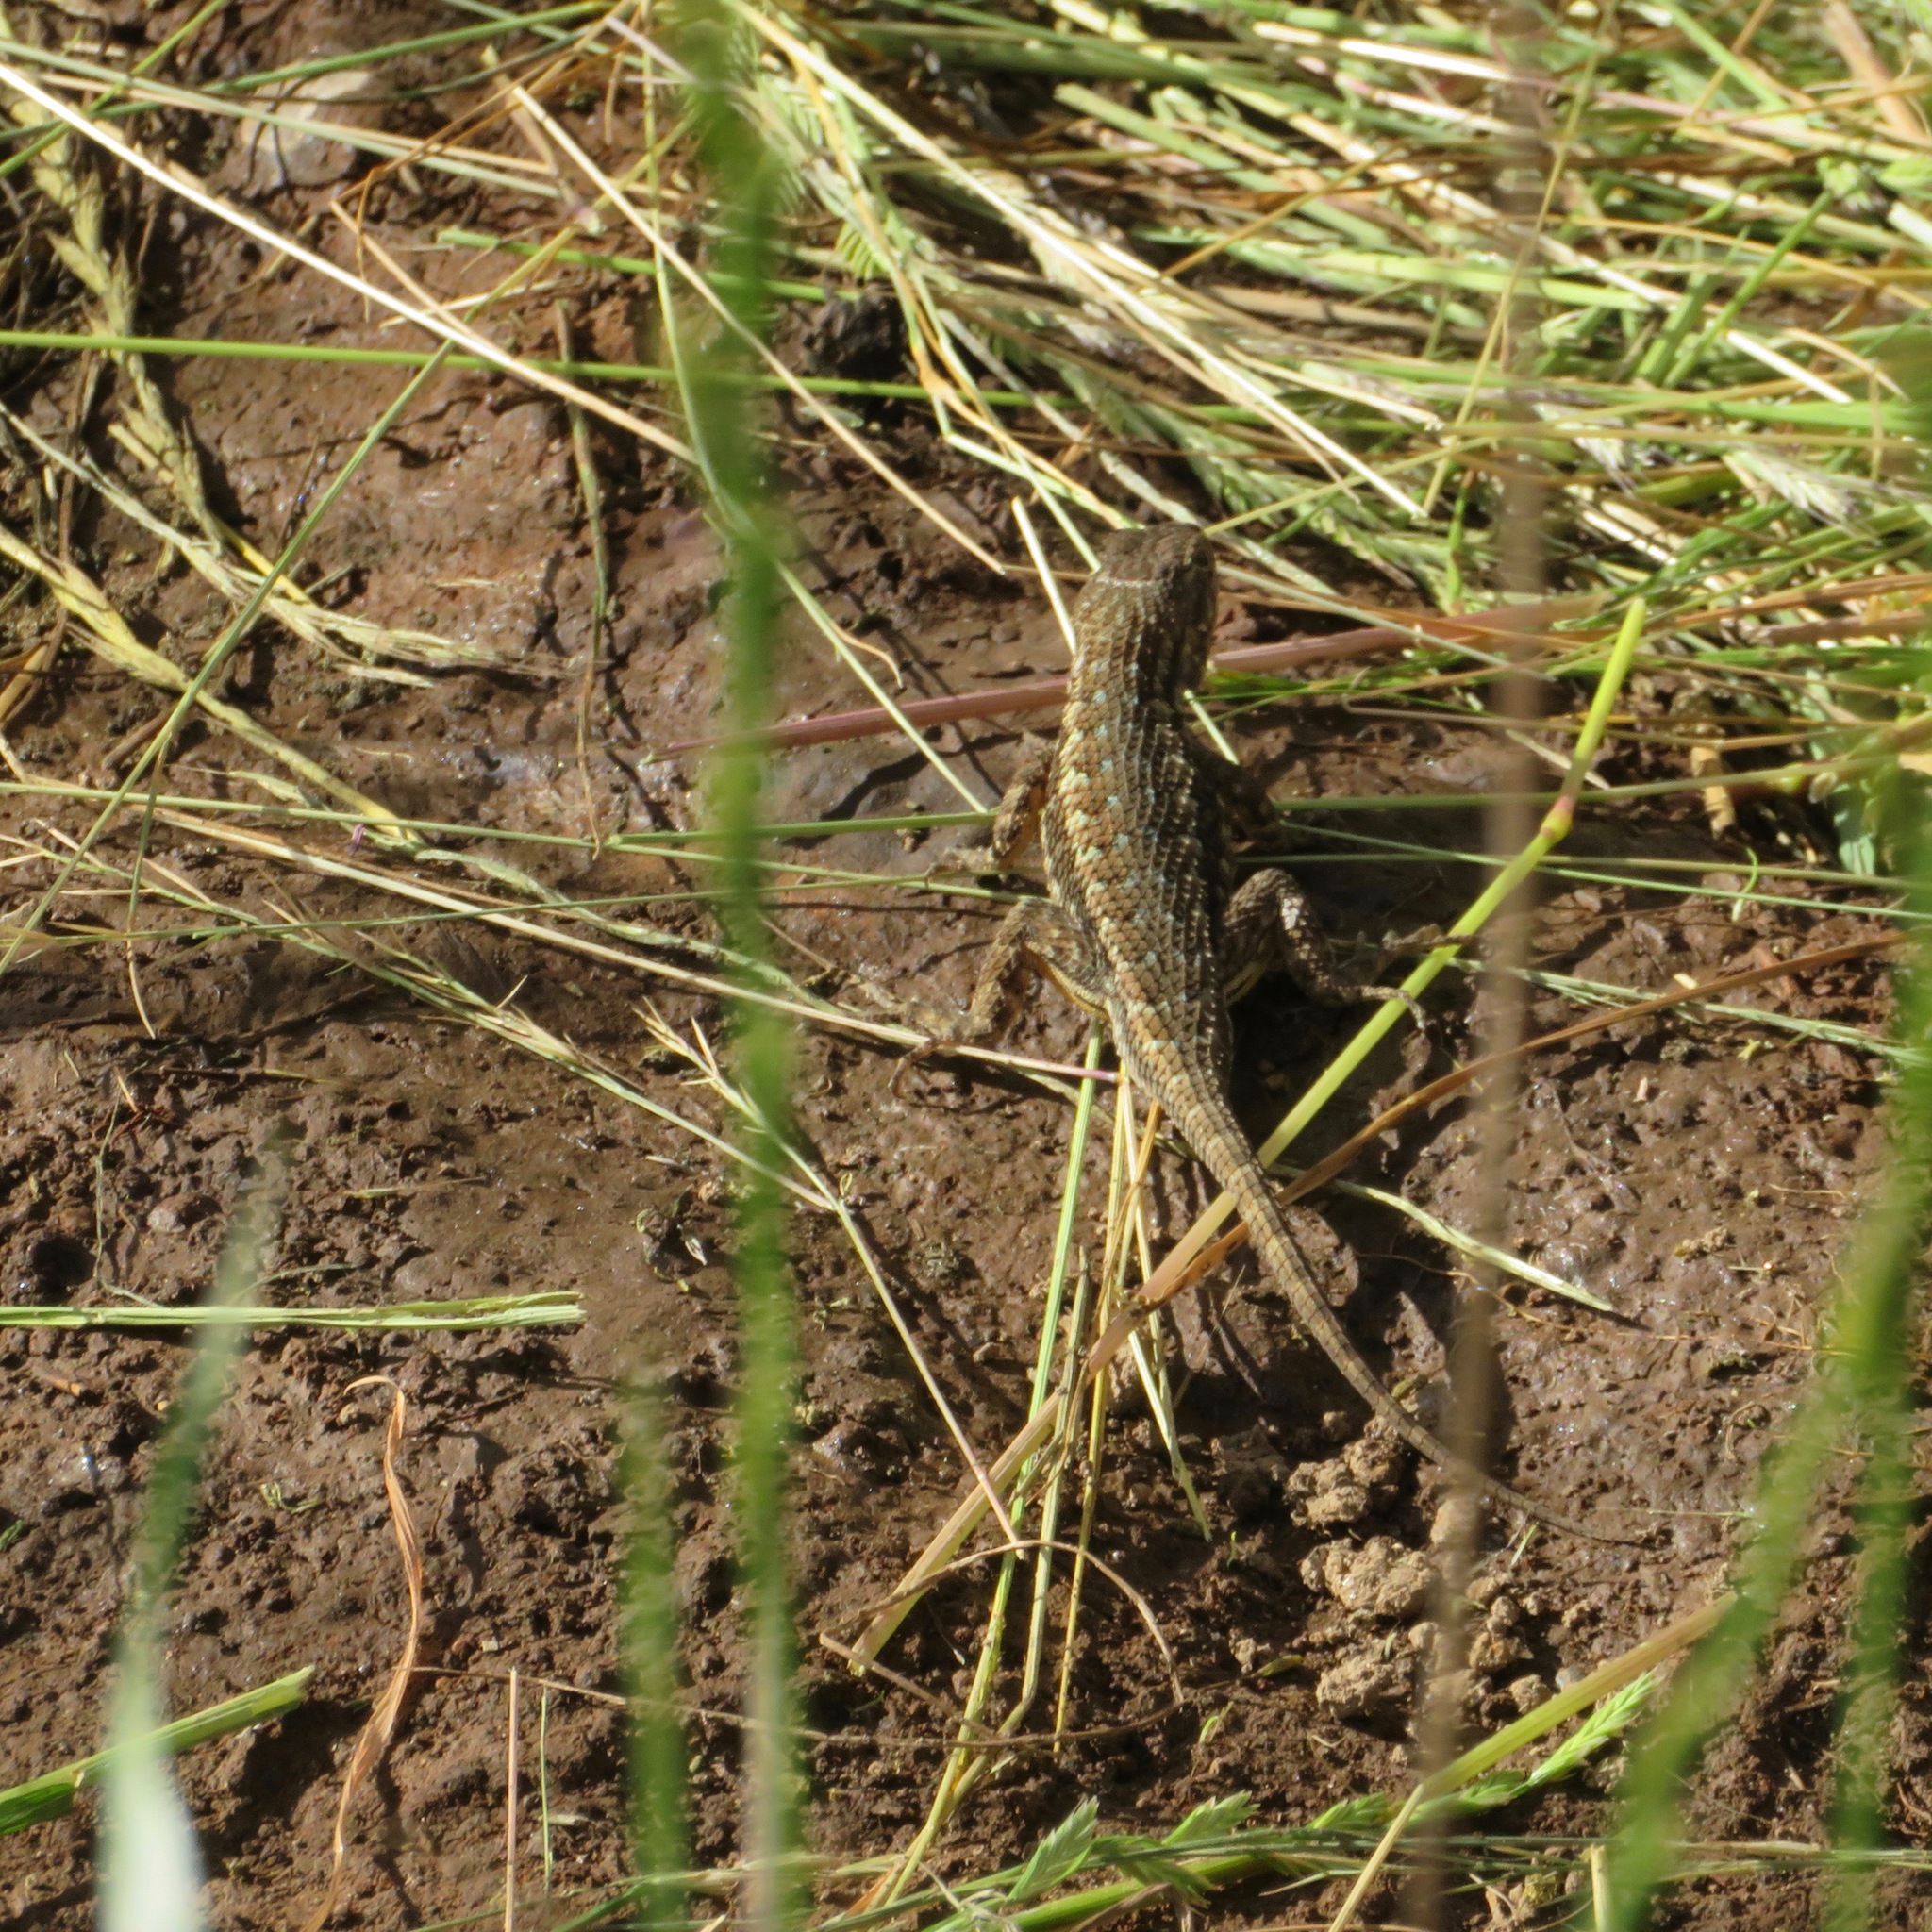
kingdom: Animalia
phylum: Chordata
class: Squamata
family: Phrynosomatidae
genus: Sceloporus
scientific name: Sceloporus occidentalis
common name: Western fence lizard
